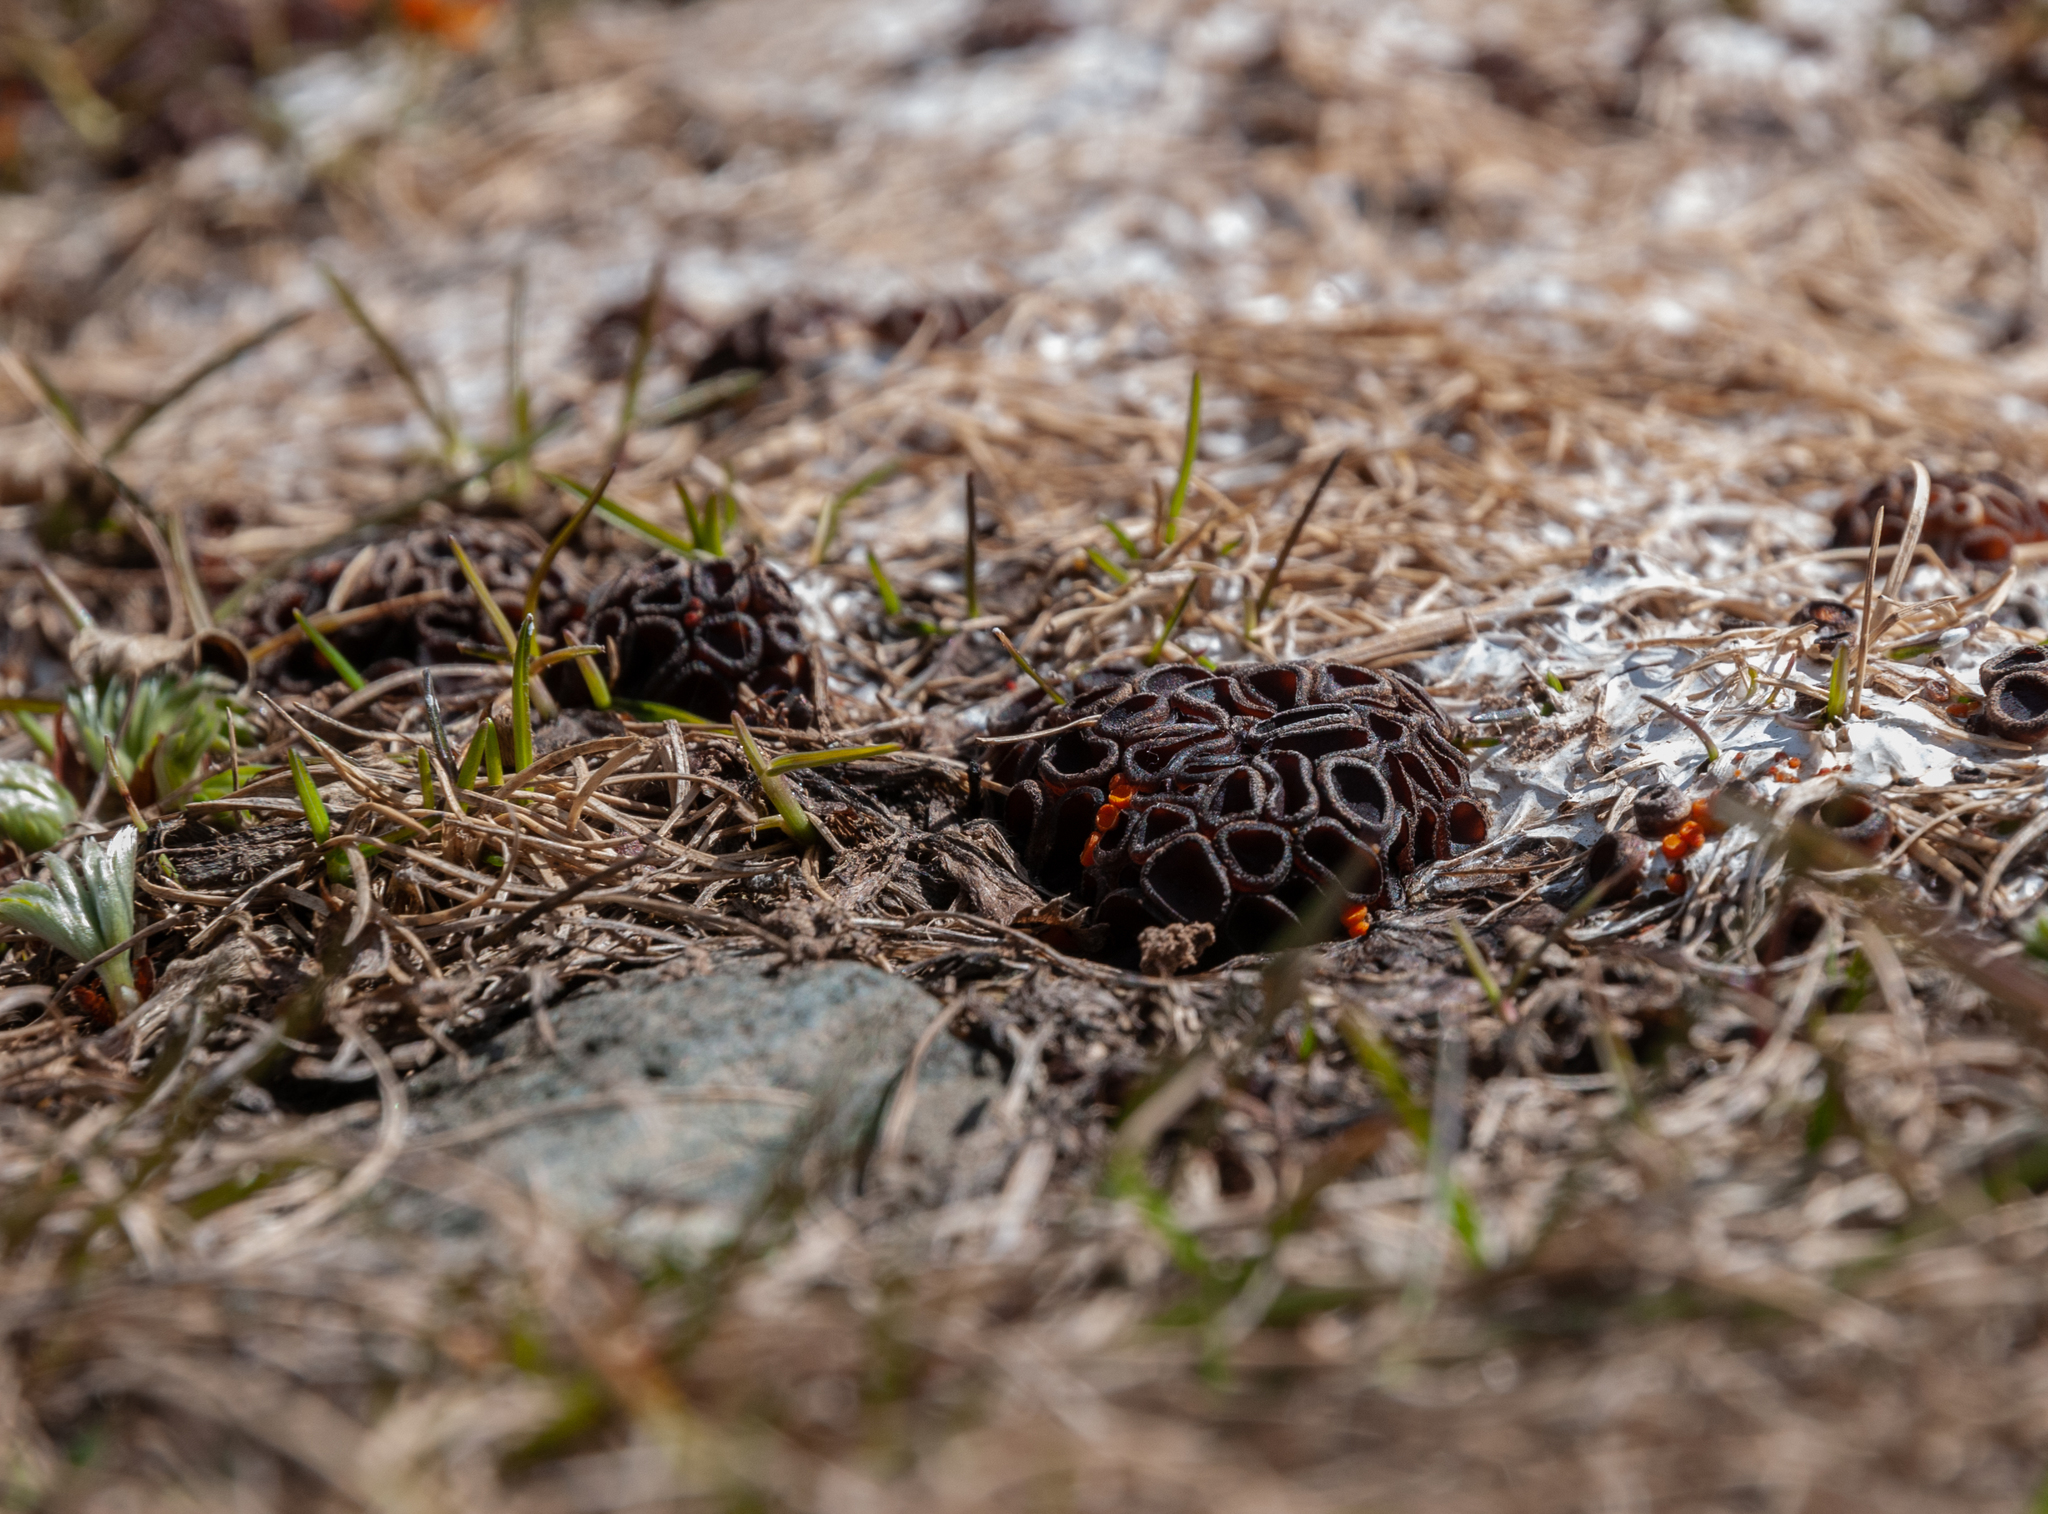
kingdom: Fungi
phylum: Ascomycota
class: Pezizomycetes
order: Pezizales
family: Pseudombrophilaceae
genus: Pseudombrophila
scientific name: Pseudombrophila guldeniae
